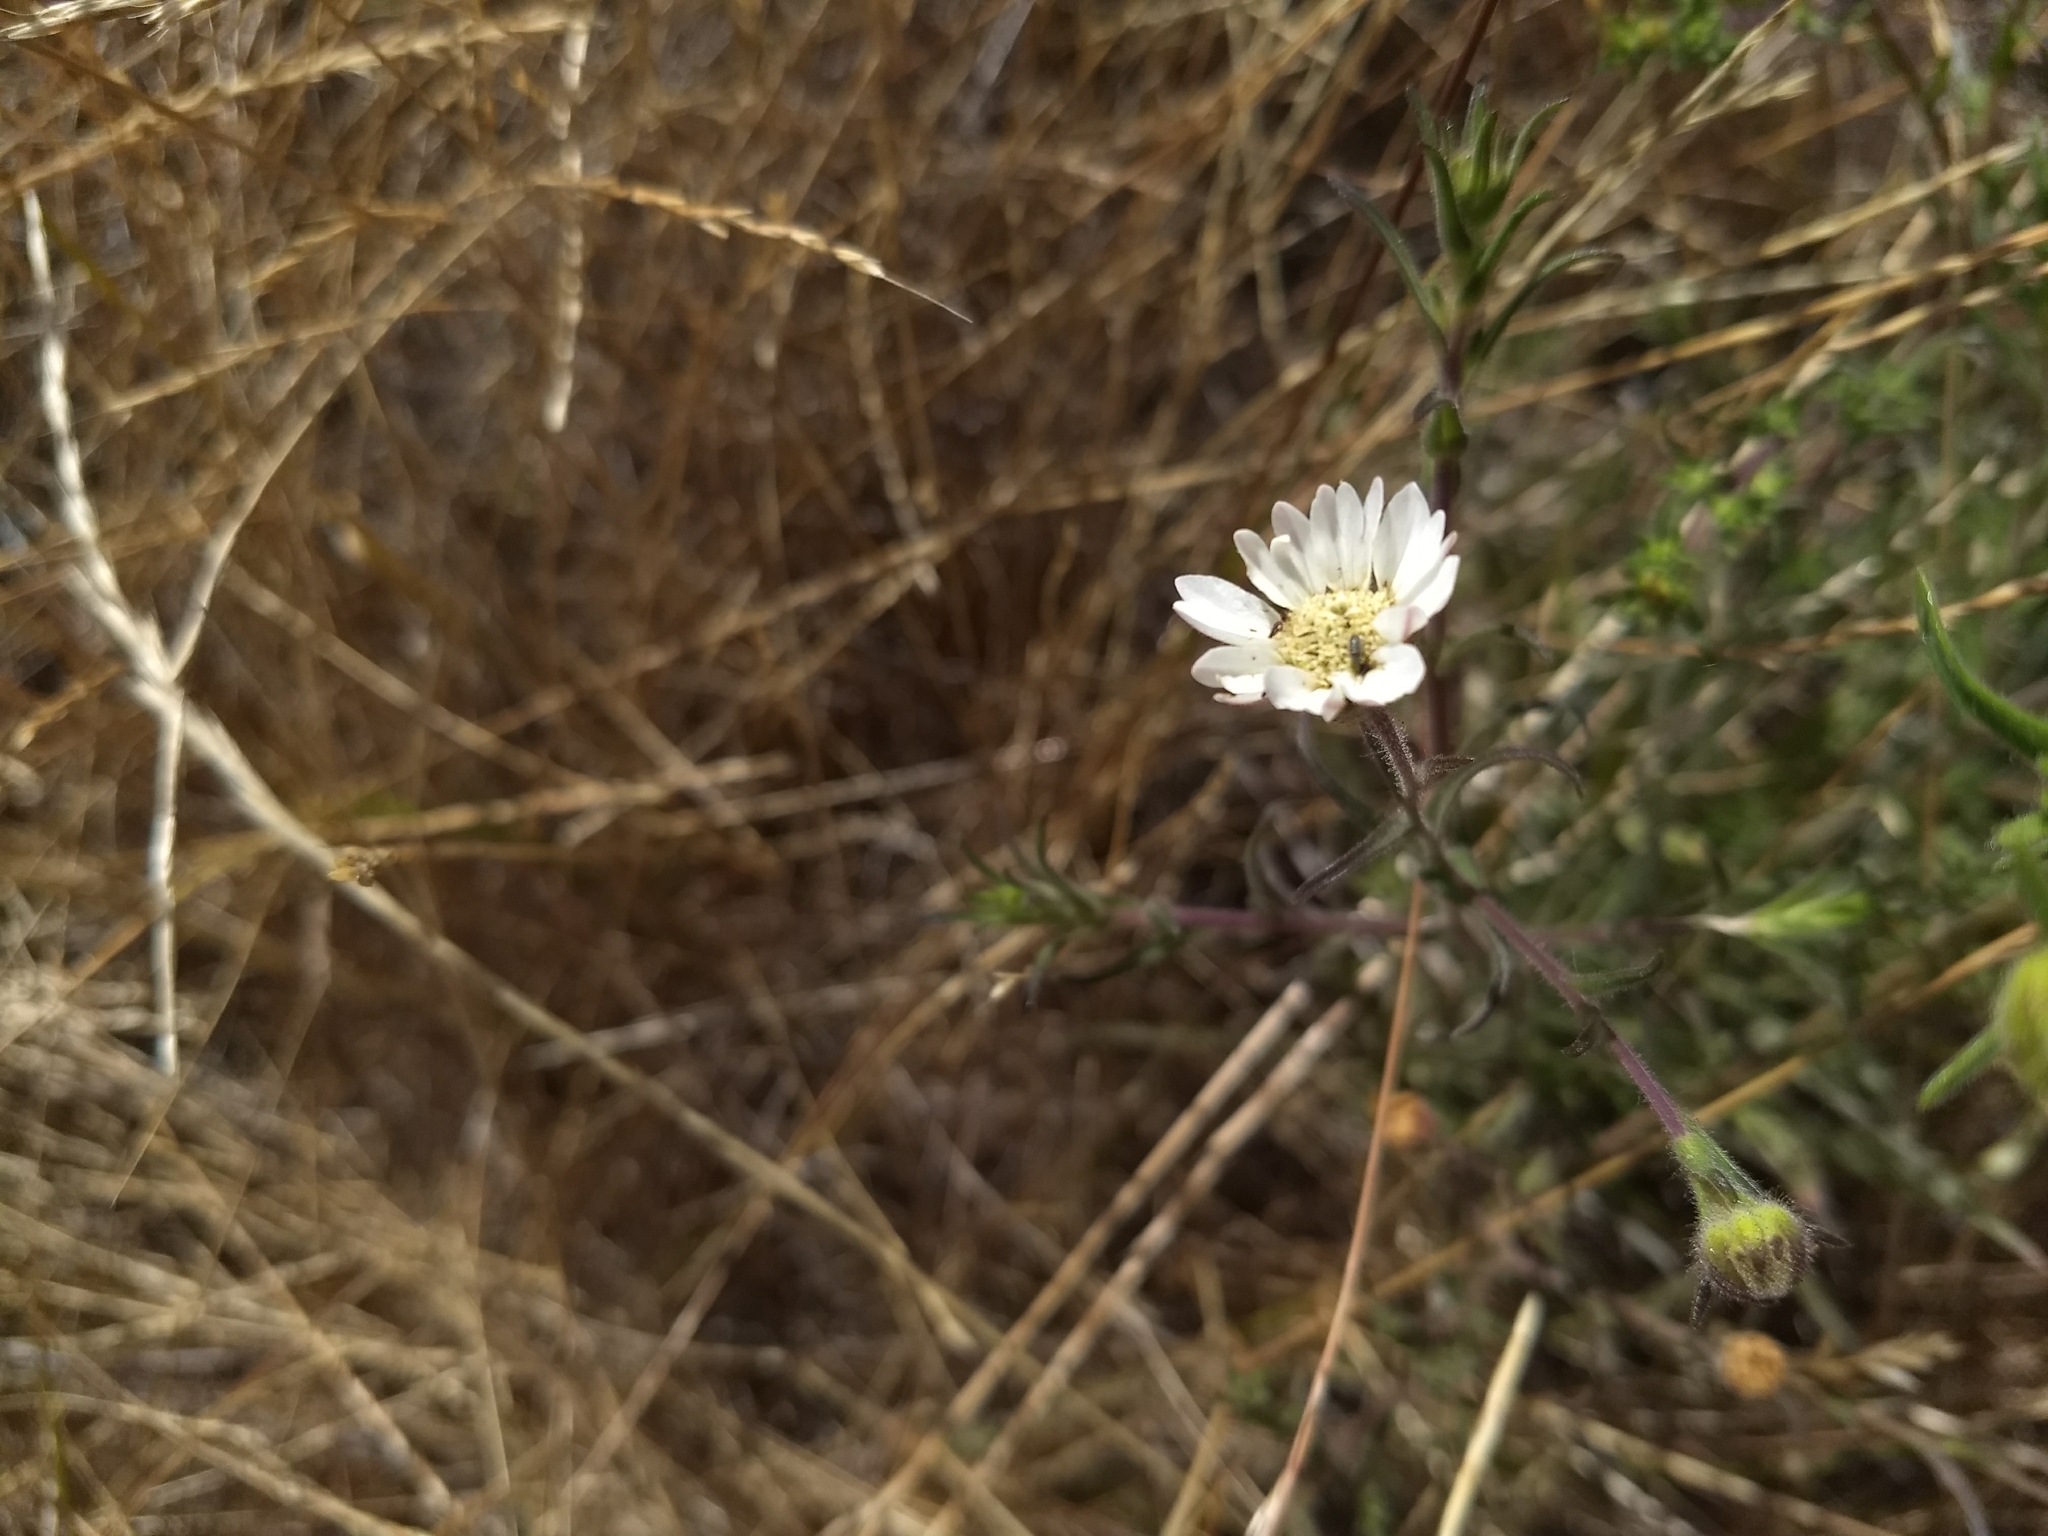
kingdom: Plantae
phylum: Tracheophyta
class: Magnoliopsida
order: Asterales
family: Asteraceae
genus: Hemizonia
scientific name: Hemizonia congesta
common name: Hayfield tarweed
